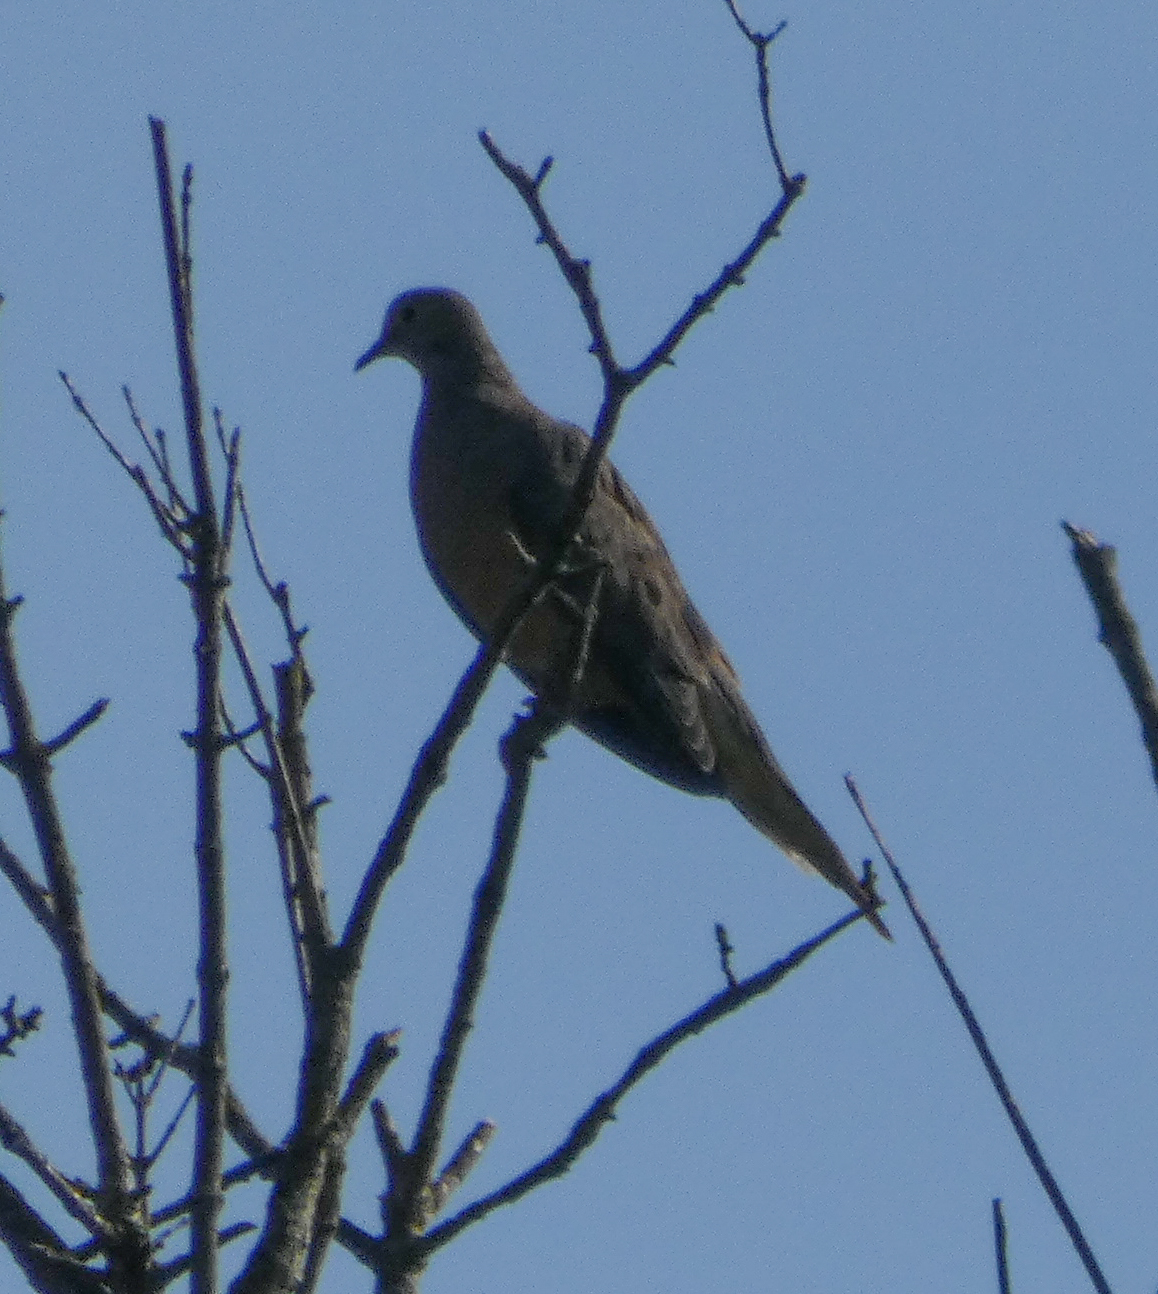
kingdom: Animalia
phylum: Chordata
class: Aves
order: Columbiformes
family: Columbidae
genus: Zenaida
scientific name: Zenaida macroura
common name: Mourning dove
